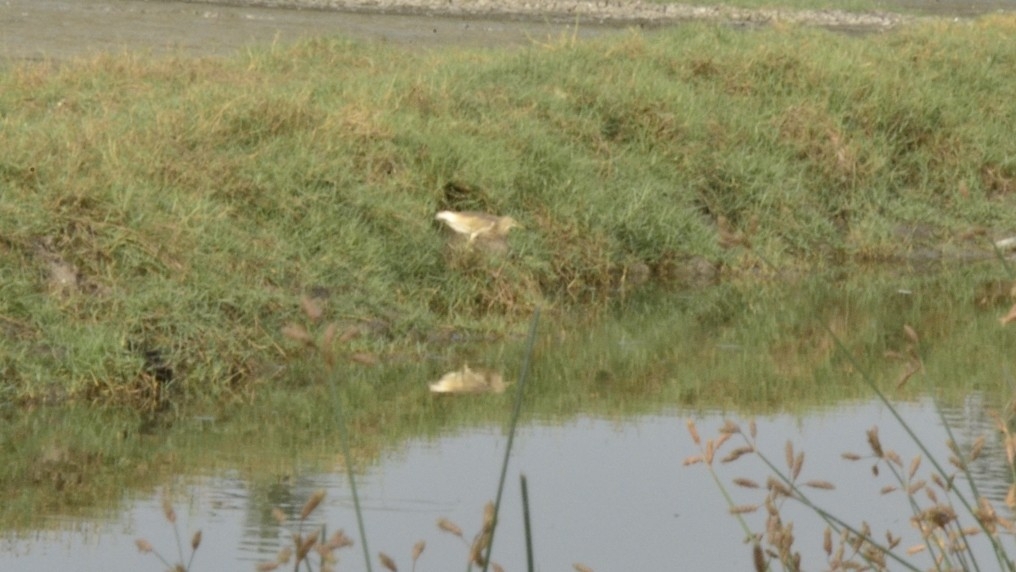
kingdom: Animalia
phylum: Chordata
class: Aves
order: Pelecaniformes
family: Ardeidae
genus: Ardeola
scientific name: Ardeola grayii
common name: Indian pond heron
